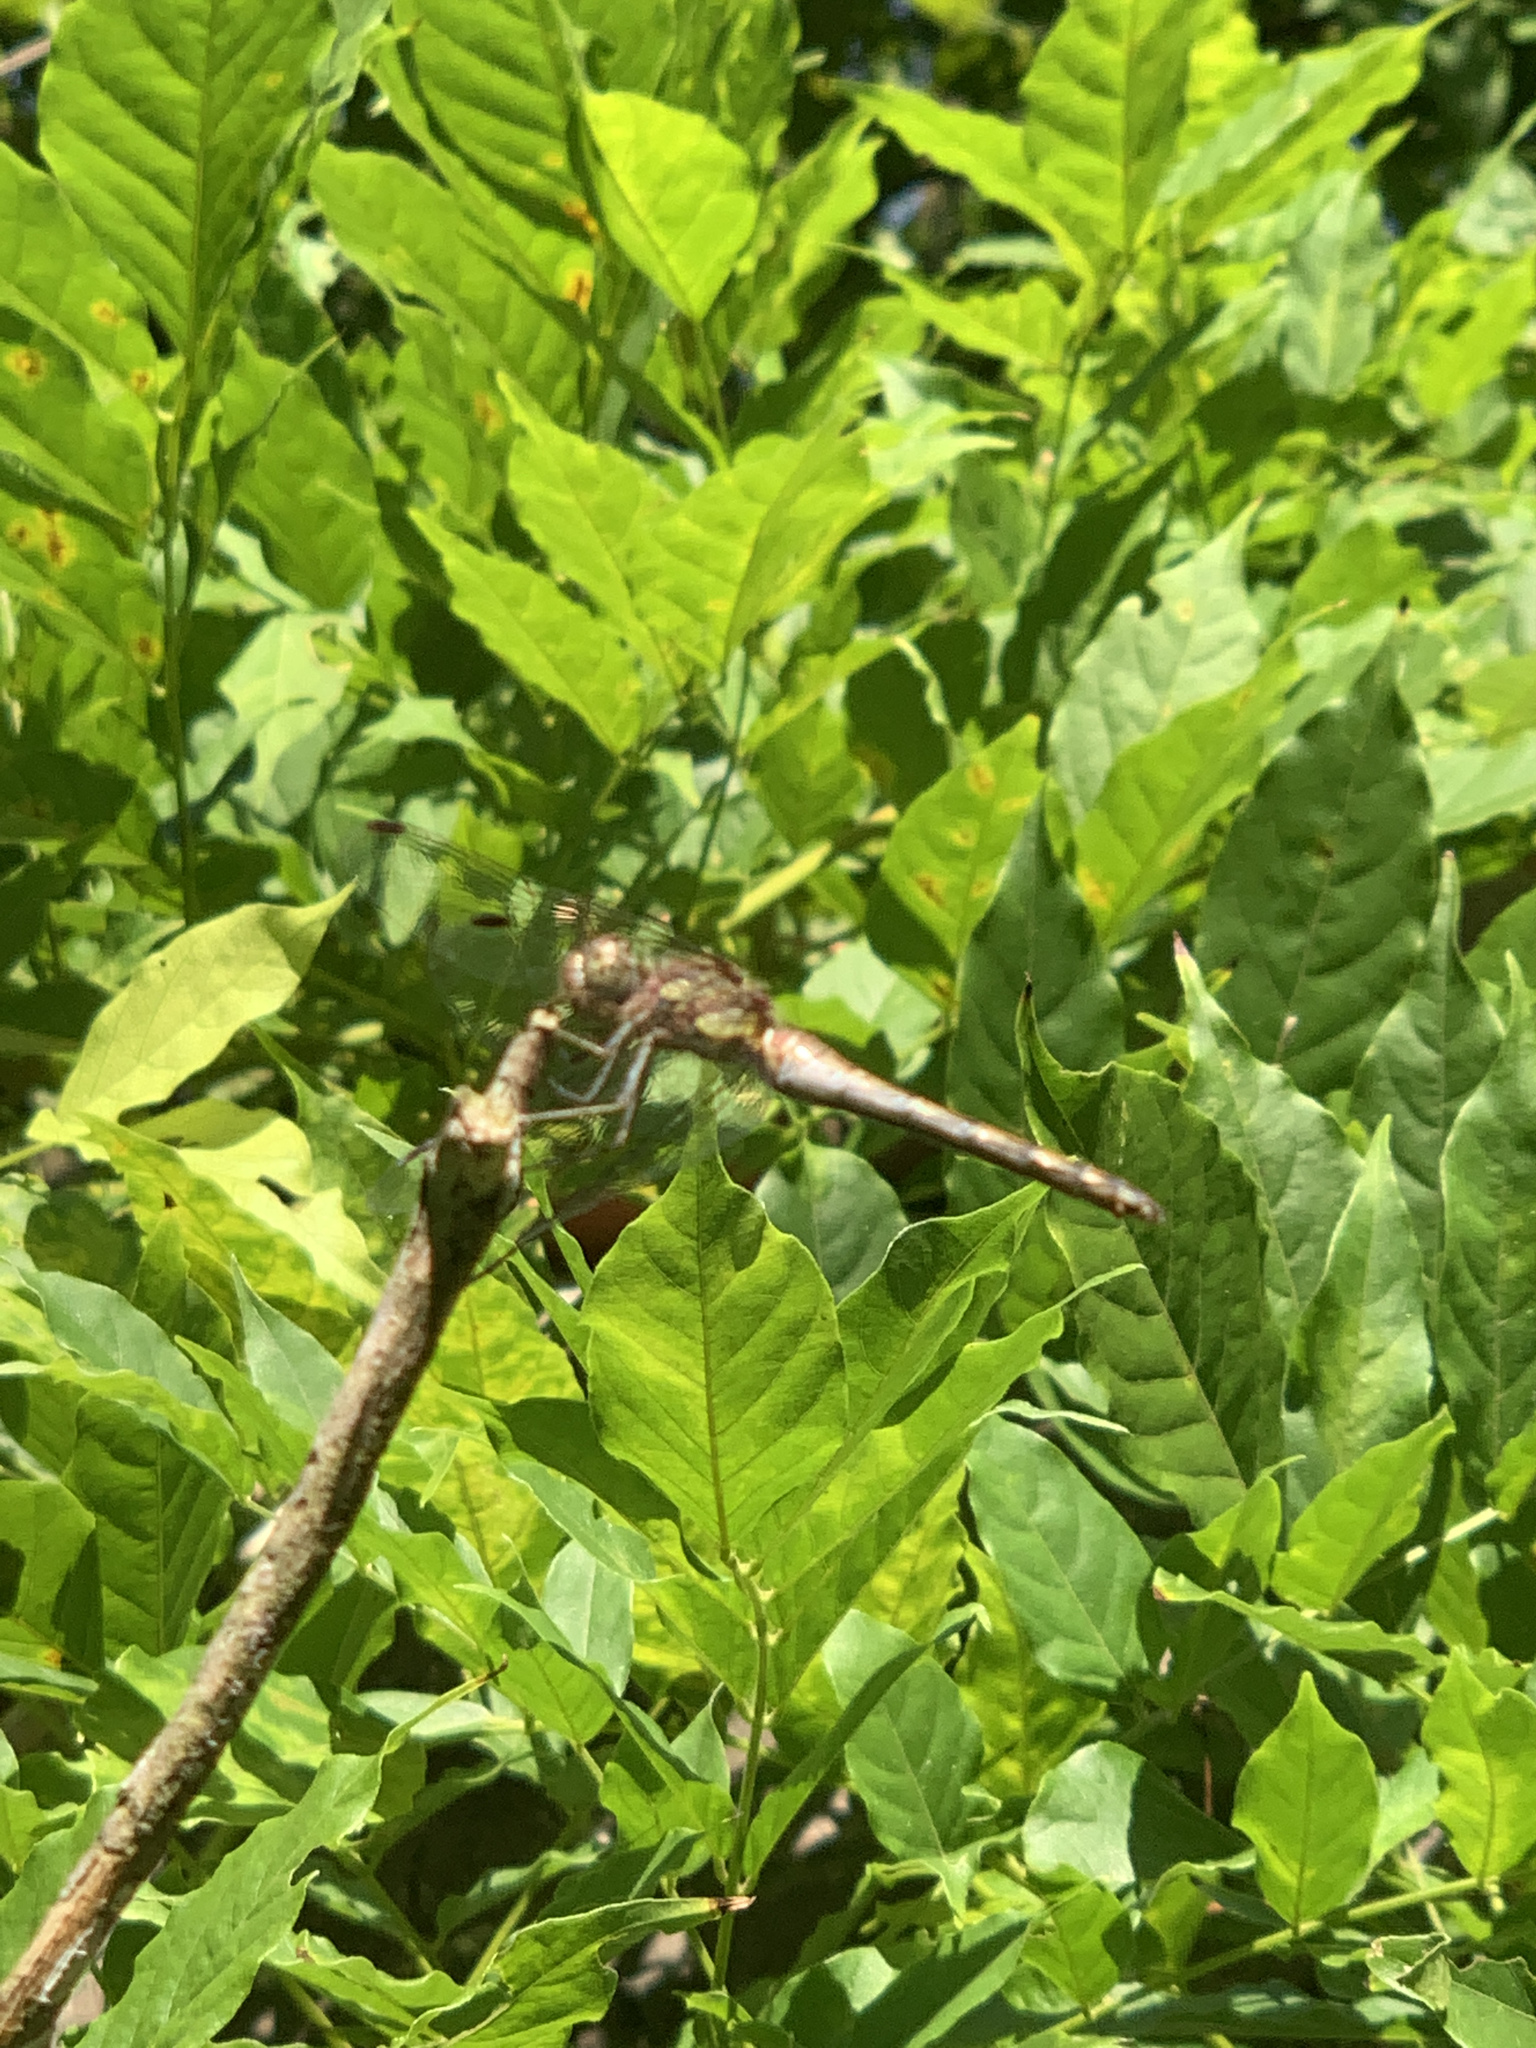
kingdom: Animalia
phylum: Arthropoda
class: Insecta
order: Odonata
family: Libellulidae
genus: Sympetrum
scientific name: Sympetrum striolatum
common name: Common darter
